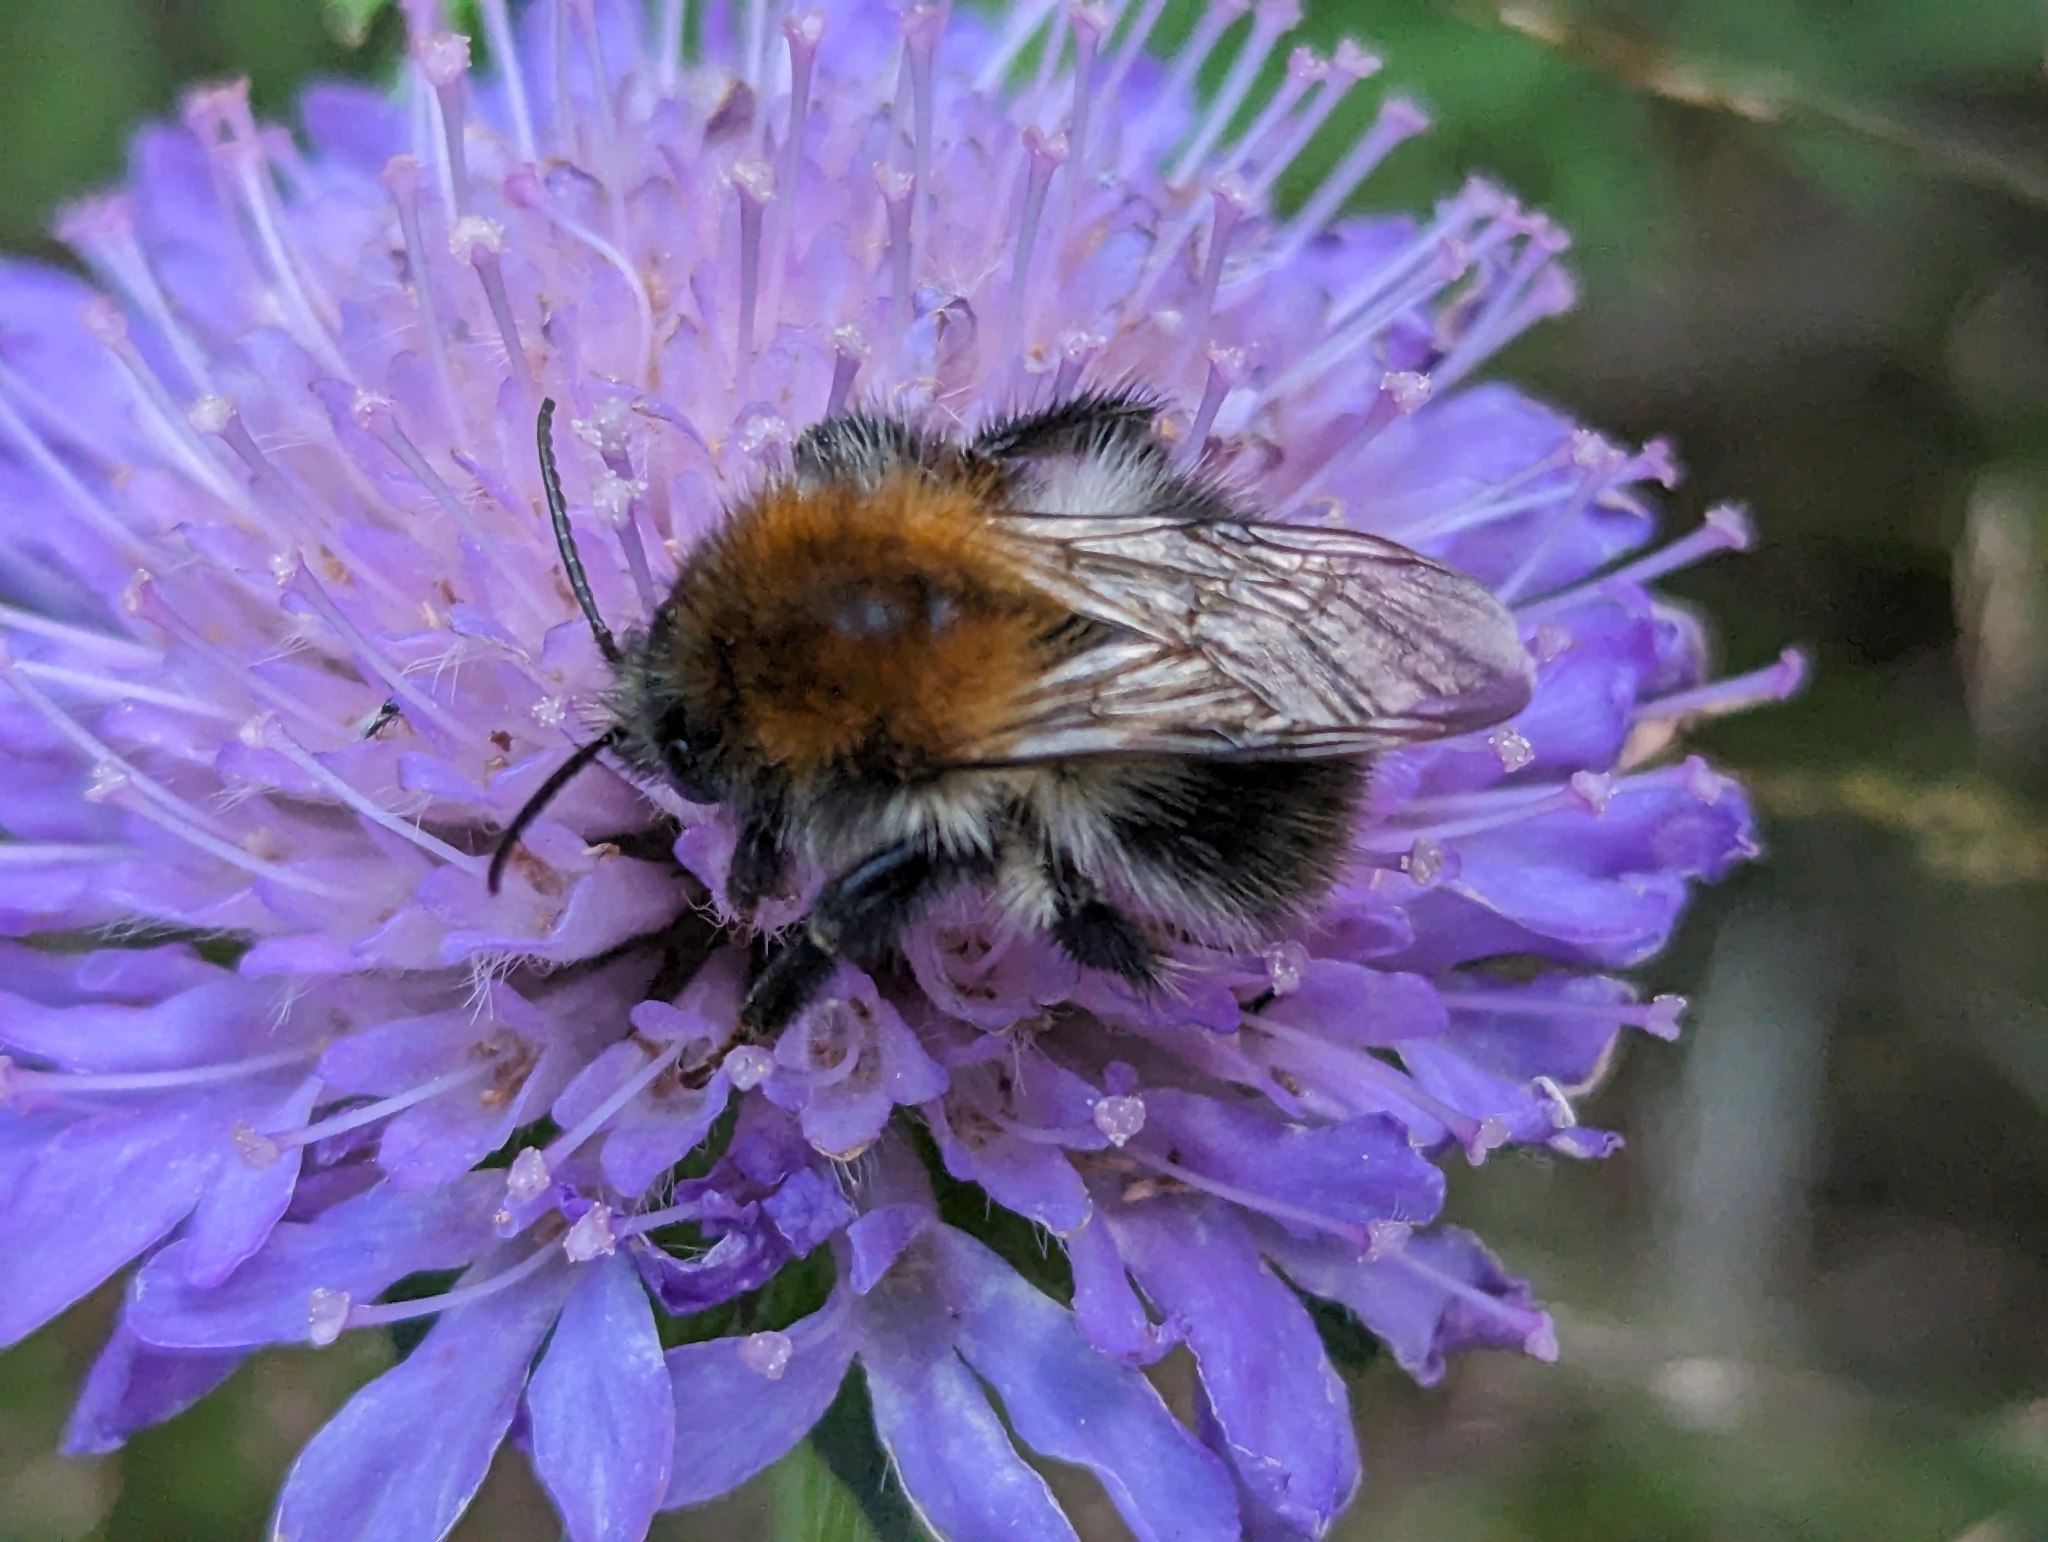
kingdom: Animalia
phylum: Arthropoda
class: Insecta
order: Hymenoptera
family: Apidae
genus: Bombus
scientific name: Bombus pascuorum
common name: Common carder bee
